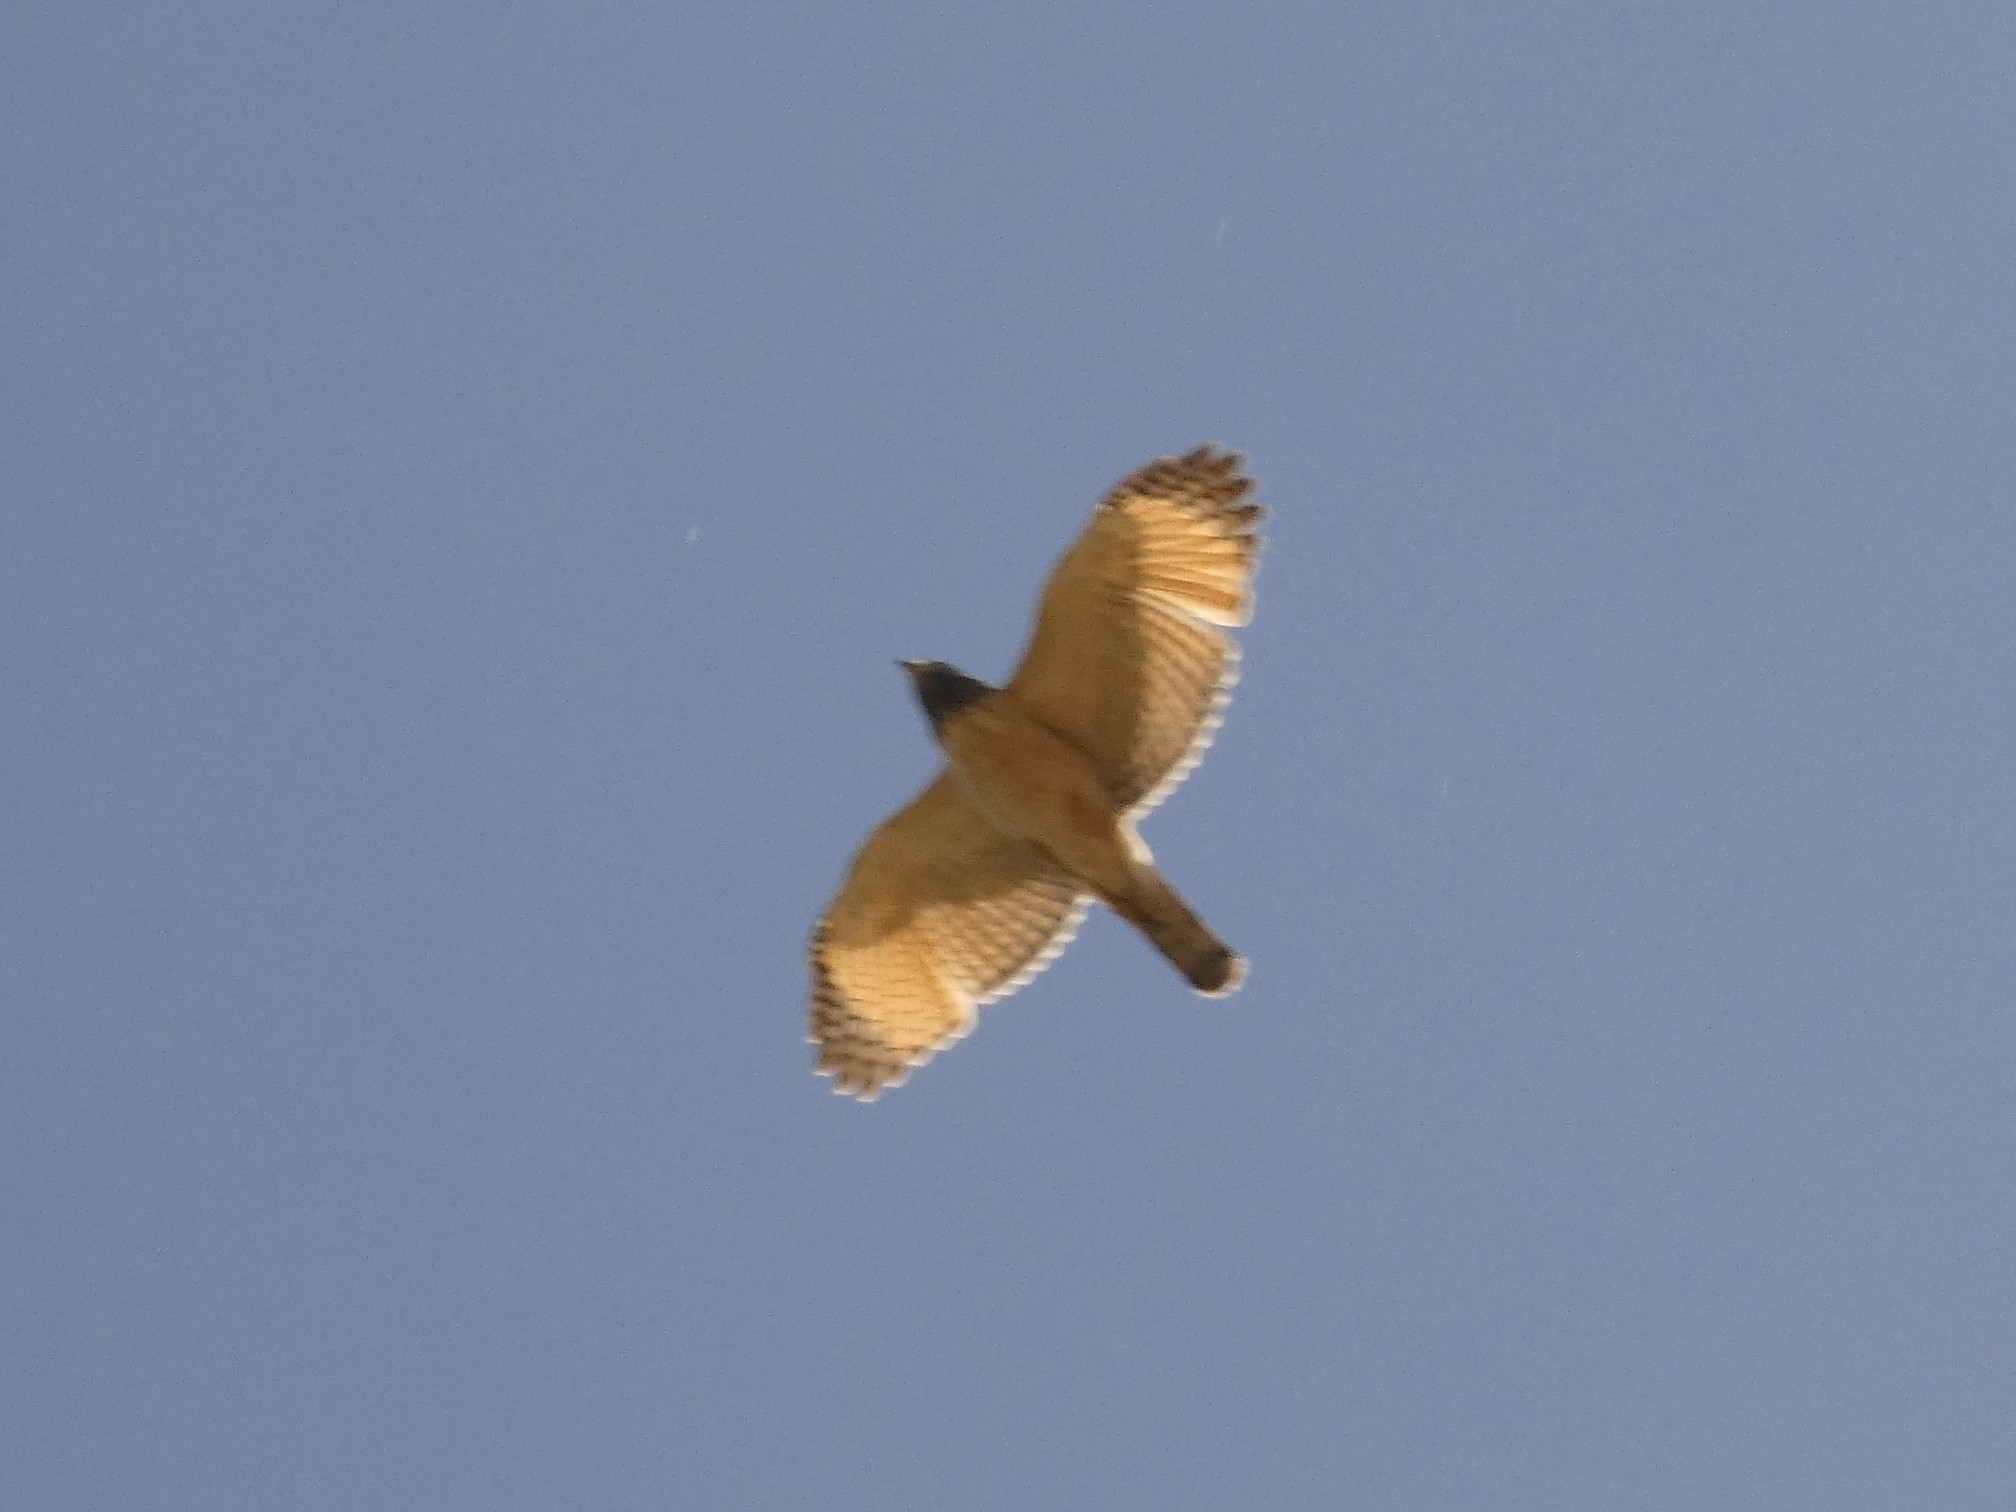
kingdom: Animalia
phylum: Chordata
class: Aves
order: Accipitriformes
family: Accipitridae
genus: Rupornis
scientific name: Rupornis magnirostris
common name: Roadside hawk
